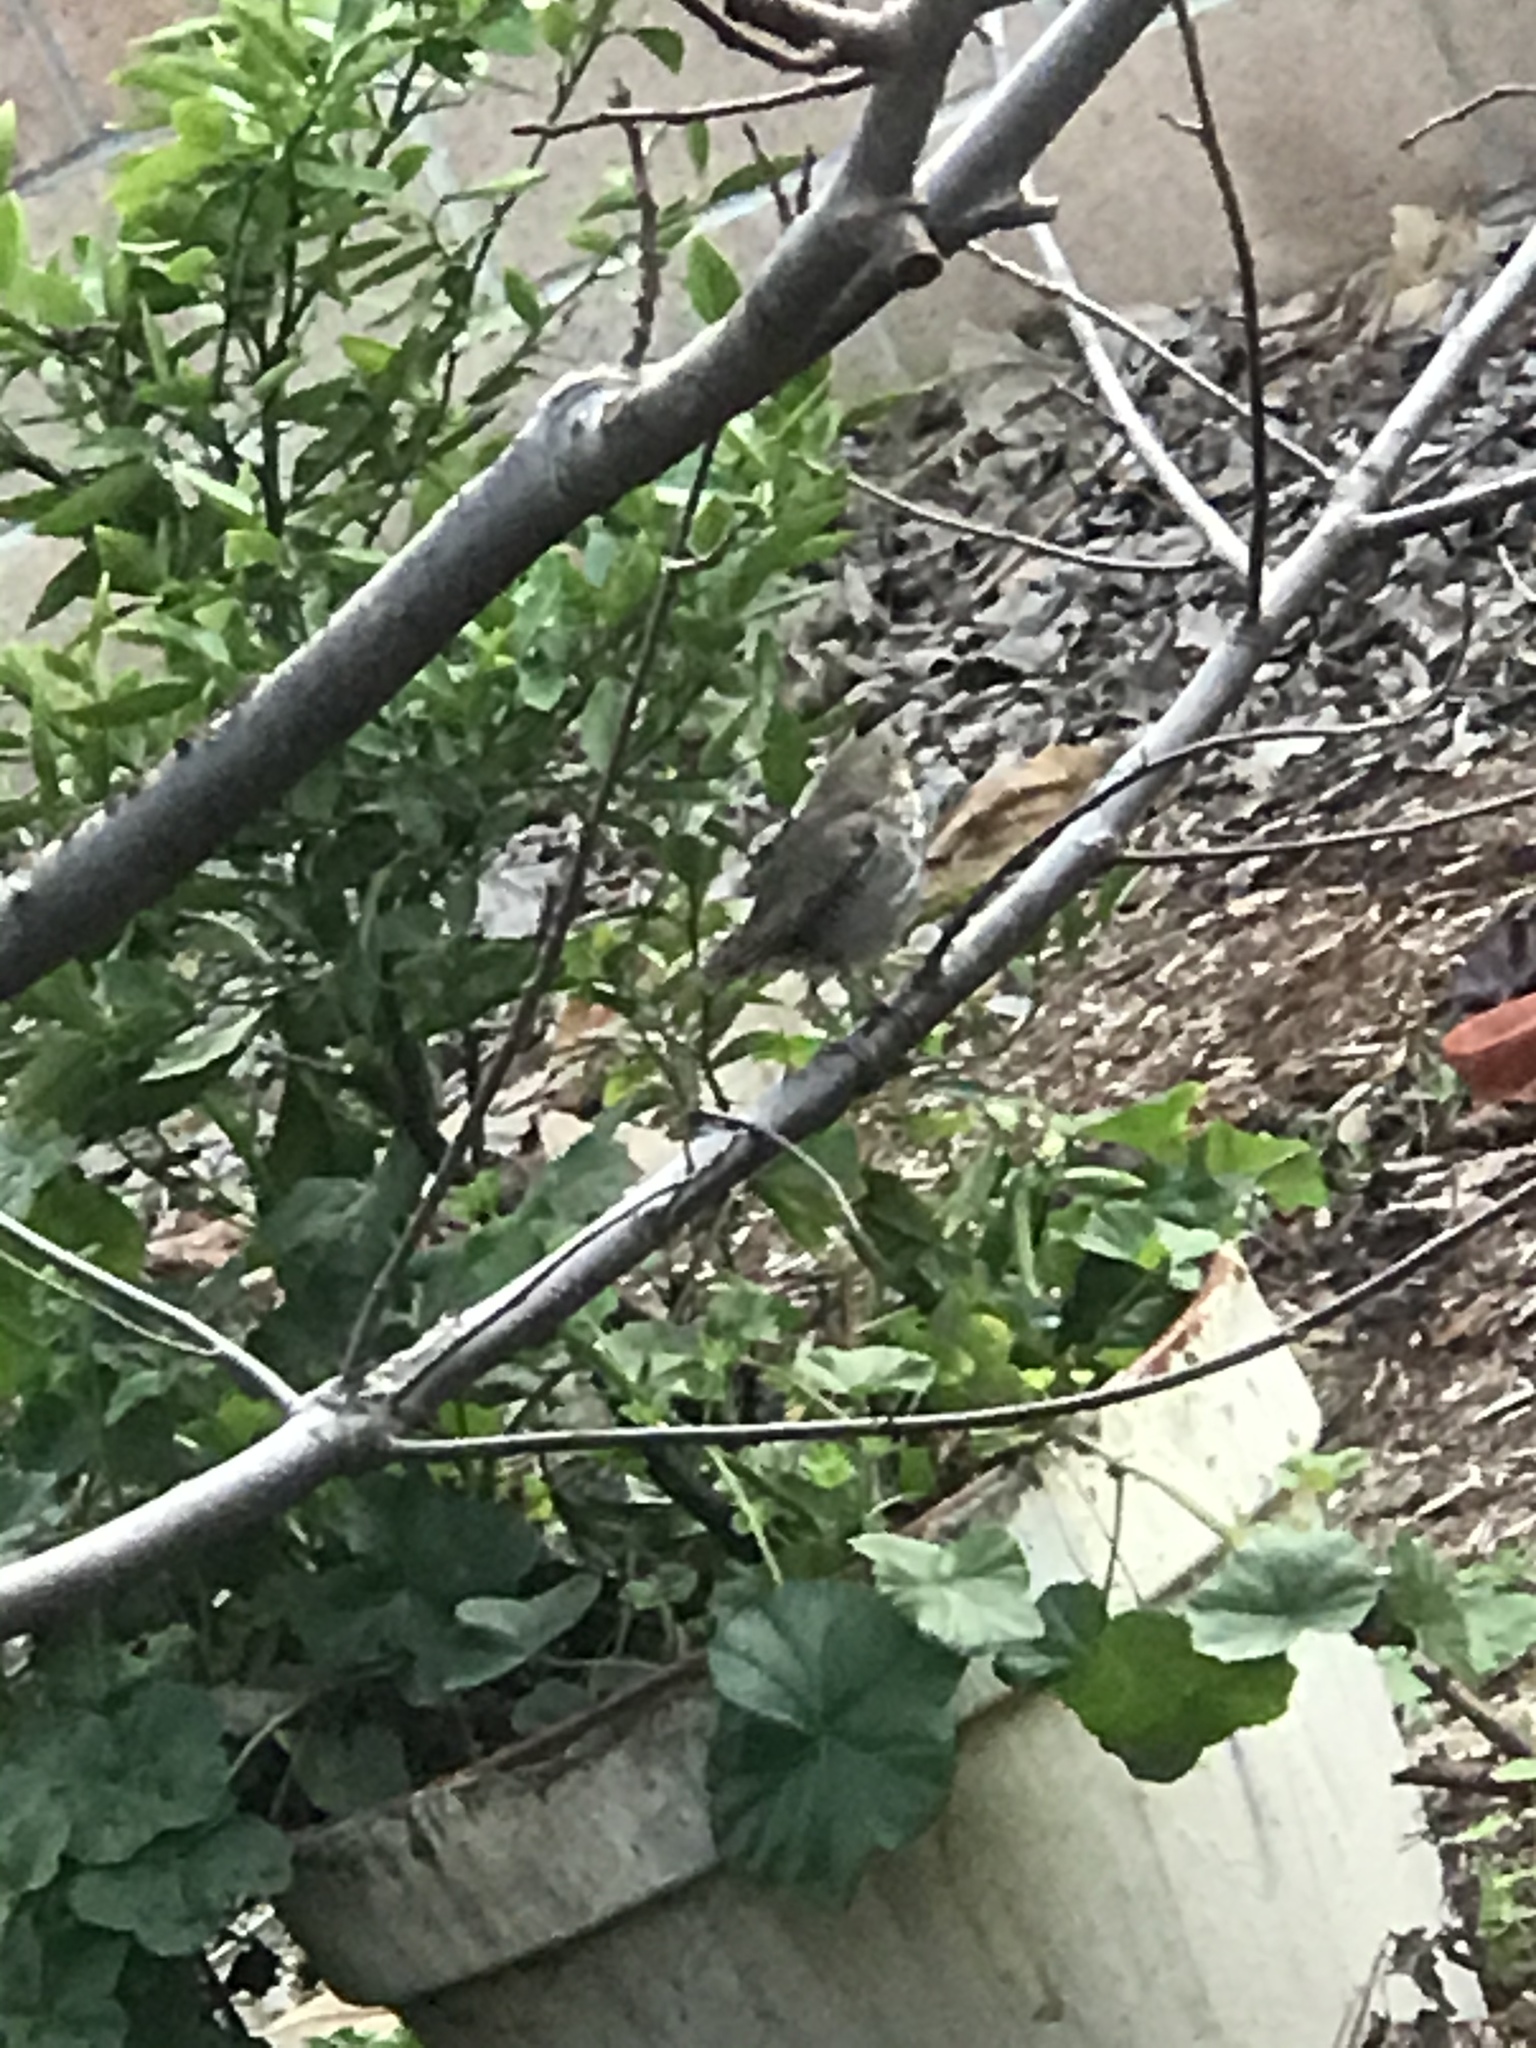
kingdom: Animalia
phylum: Chordata
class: Aves
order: Passeriformes
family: Turdidae
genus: Catharus
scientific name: Catharus guttatus
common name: Hermit thrush
